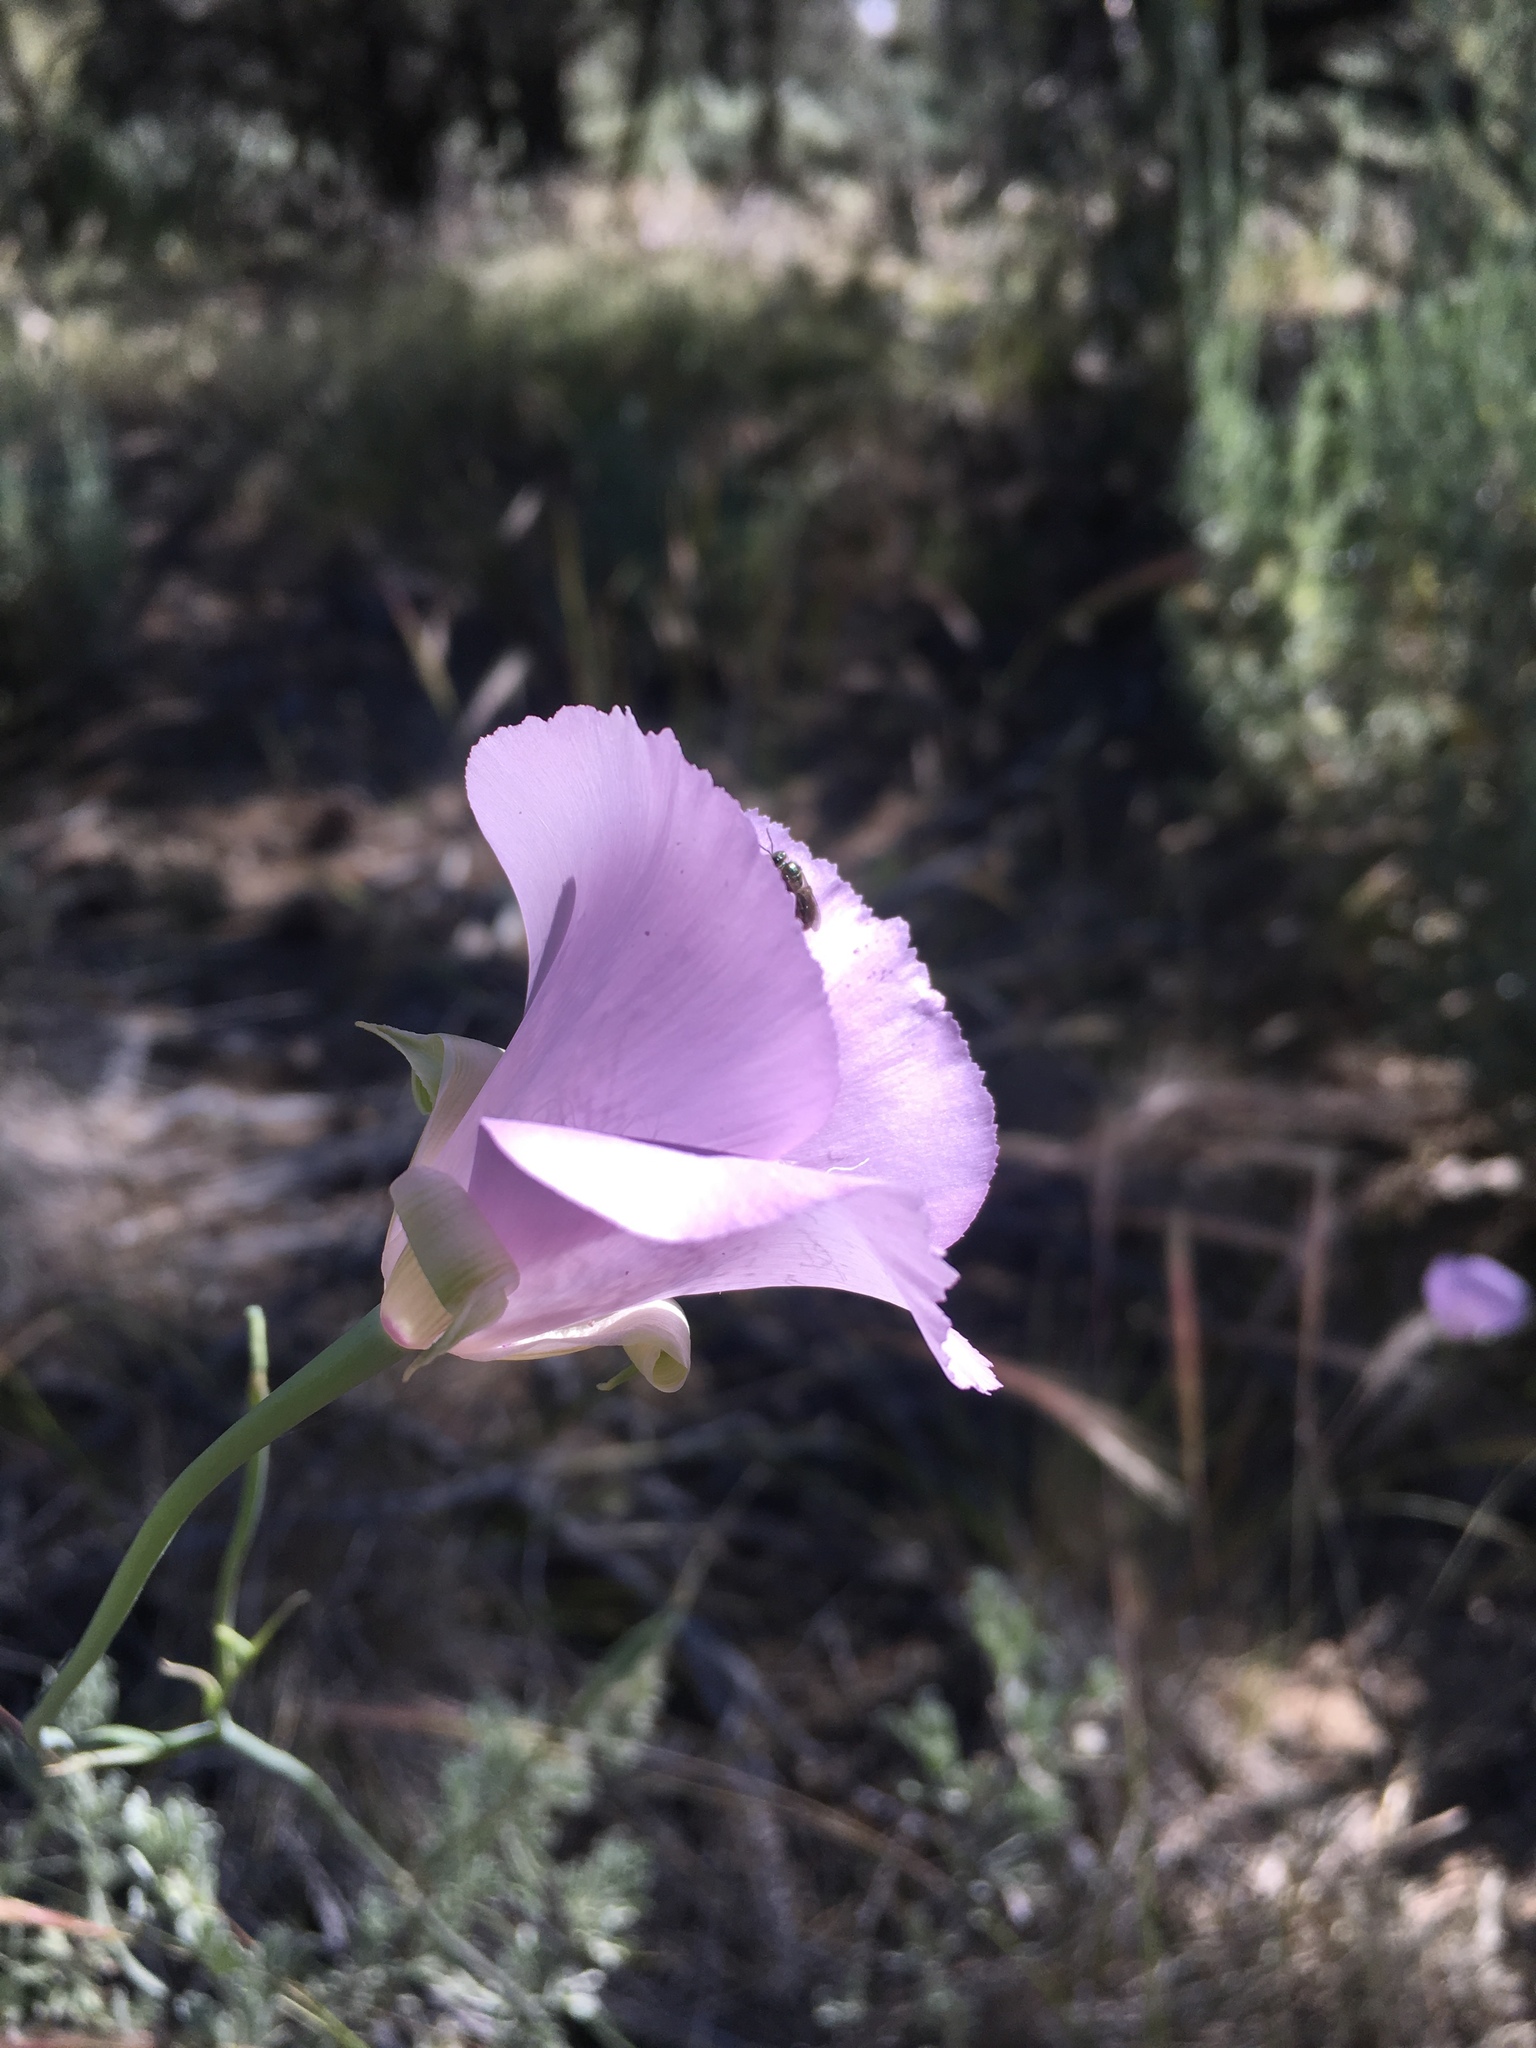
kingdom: Plantae
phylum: Tracheophyta
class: Liliopsida
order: Liliales
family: Liliaceae
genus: Calochortus
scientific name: Calochortus splendens
